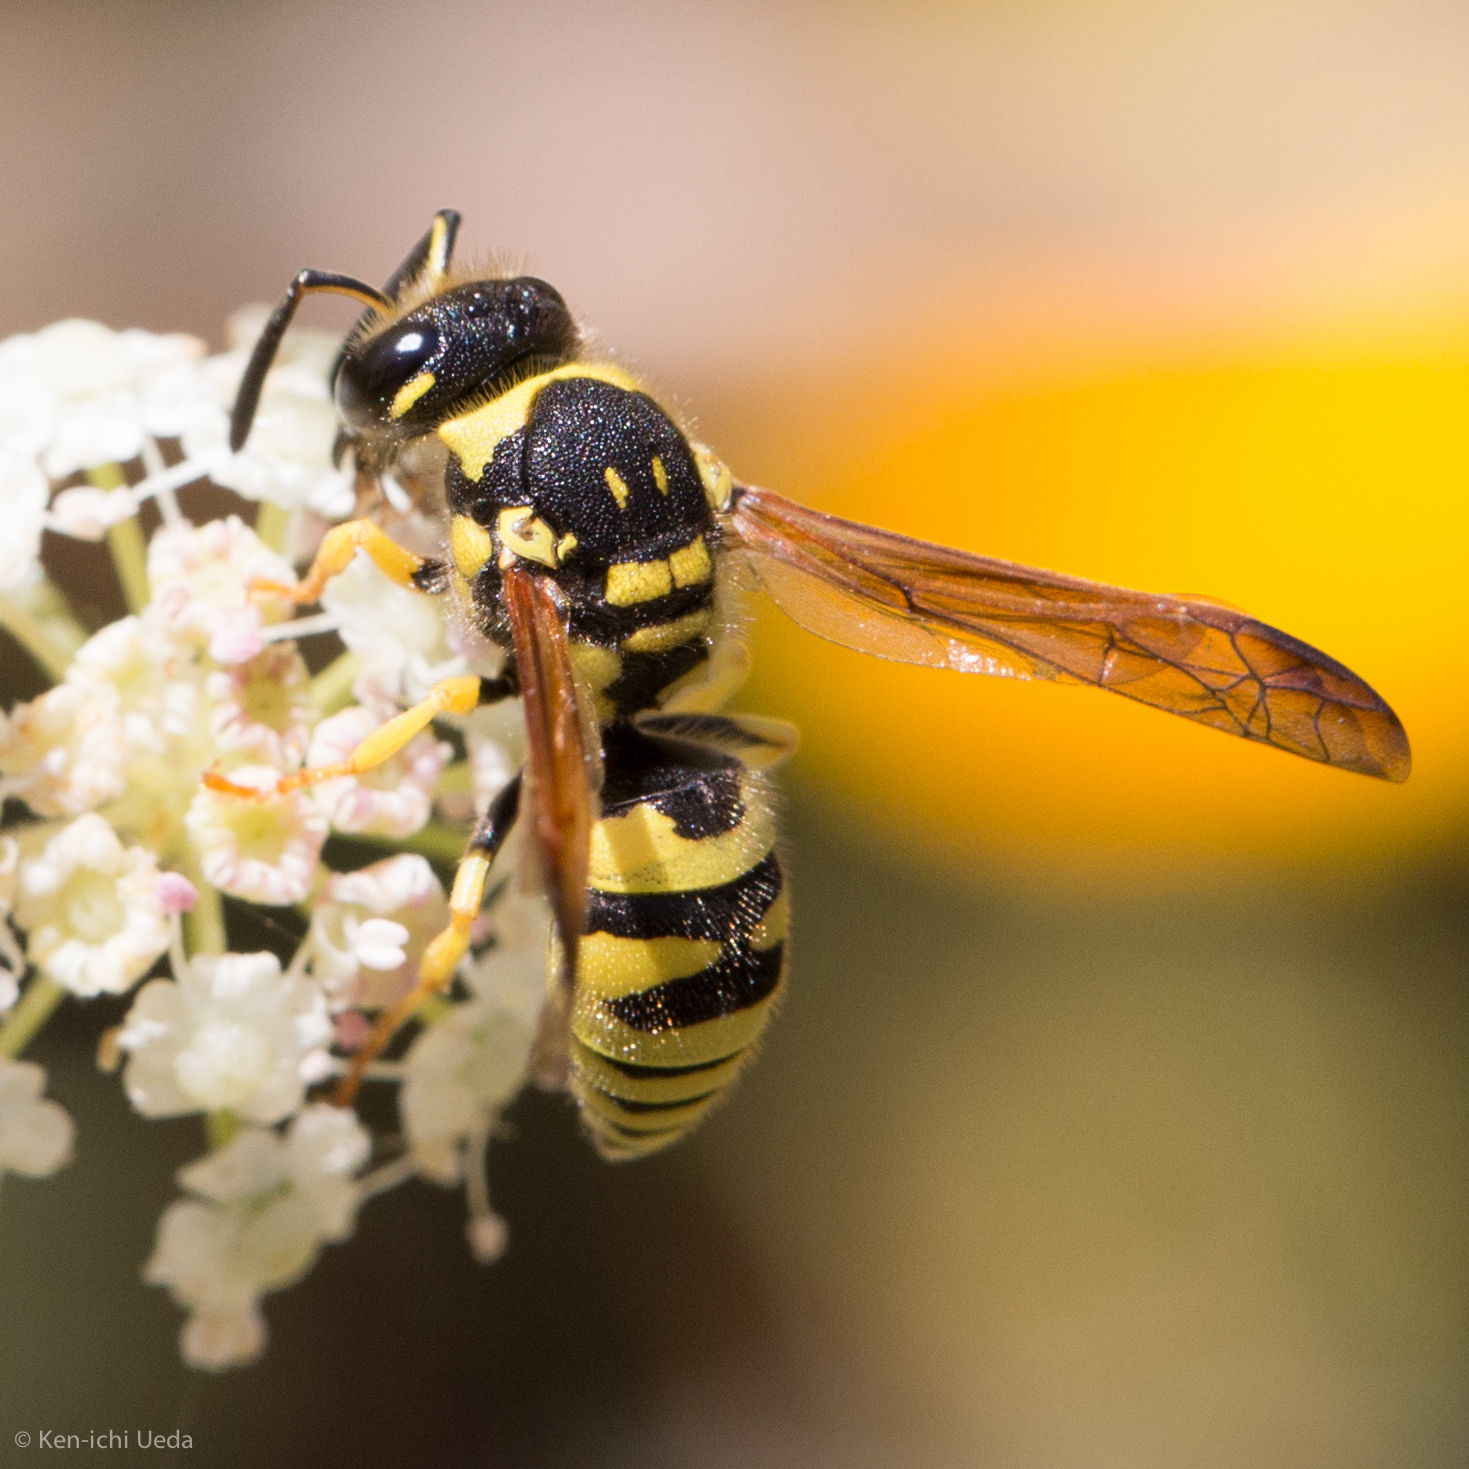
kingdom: Animalia
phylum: Arthropoda
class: Insecta
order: Hymenoptera
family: Vespidae
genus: Ancistrocerus
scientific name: Ancistrocerus spilogaster
